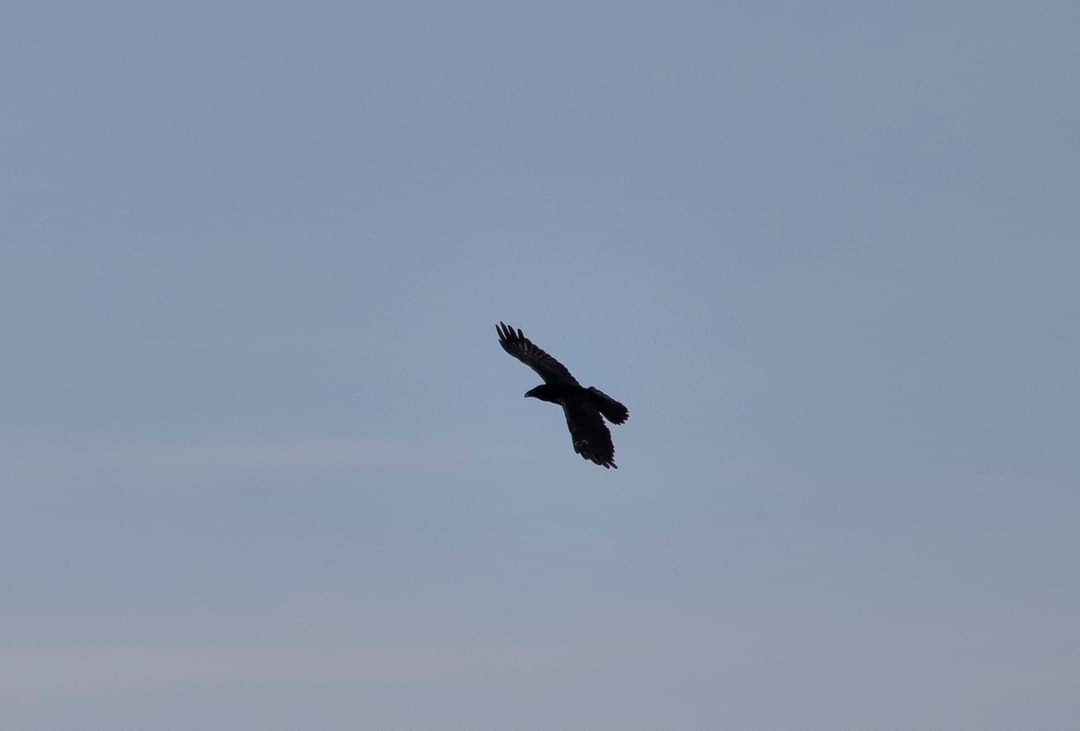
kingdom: Animalia
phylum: Chordata
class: Aves
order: Passeriformes
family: Corvidae
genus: Corvus
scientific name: Corvus corax
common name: Common raven
